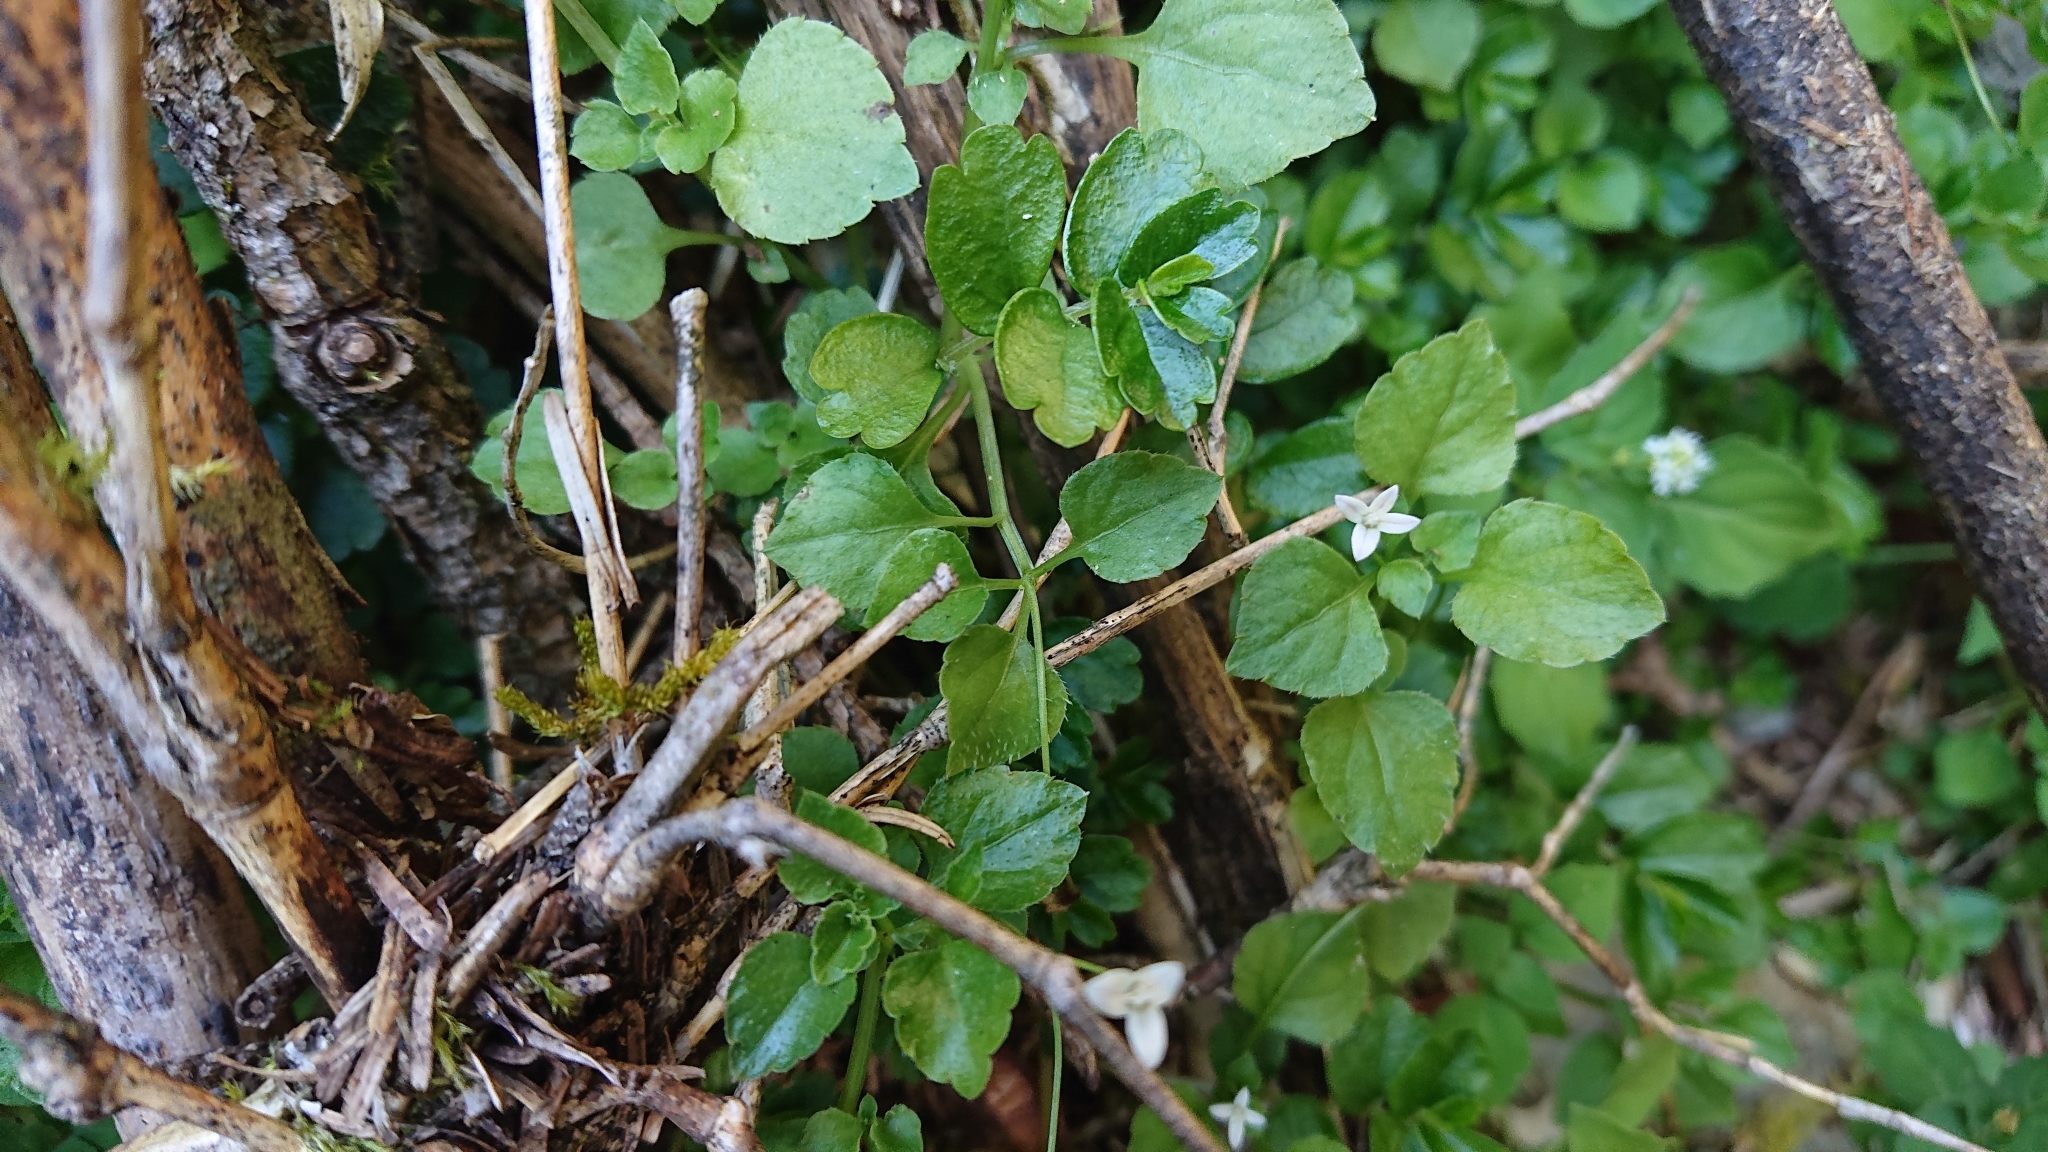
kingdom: Plantae
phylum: Tracheophyta
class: Magnoliopsida
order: Asterales
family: Campanulaceae
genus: Peracarpa
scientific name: Peracarpa carnosa
